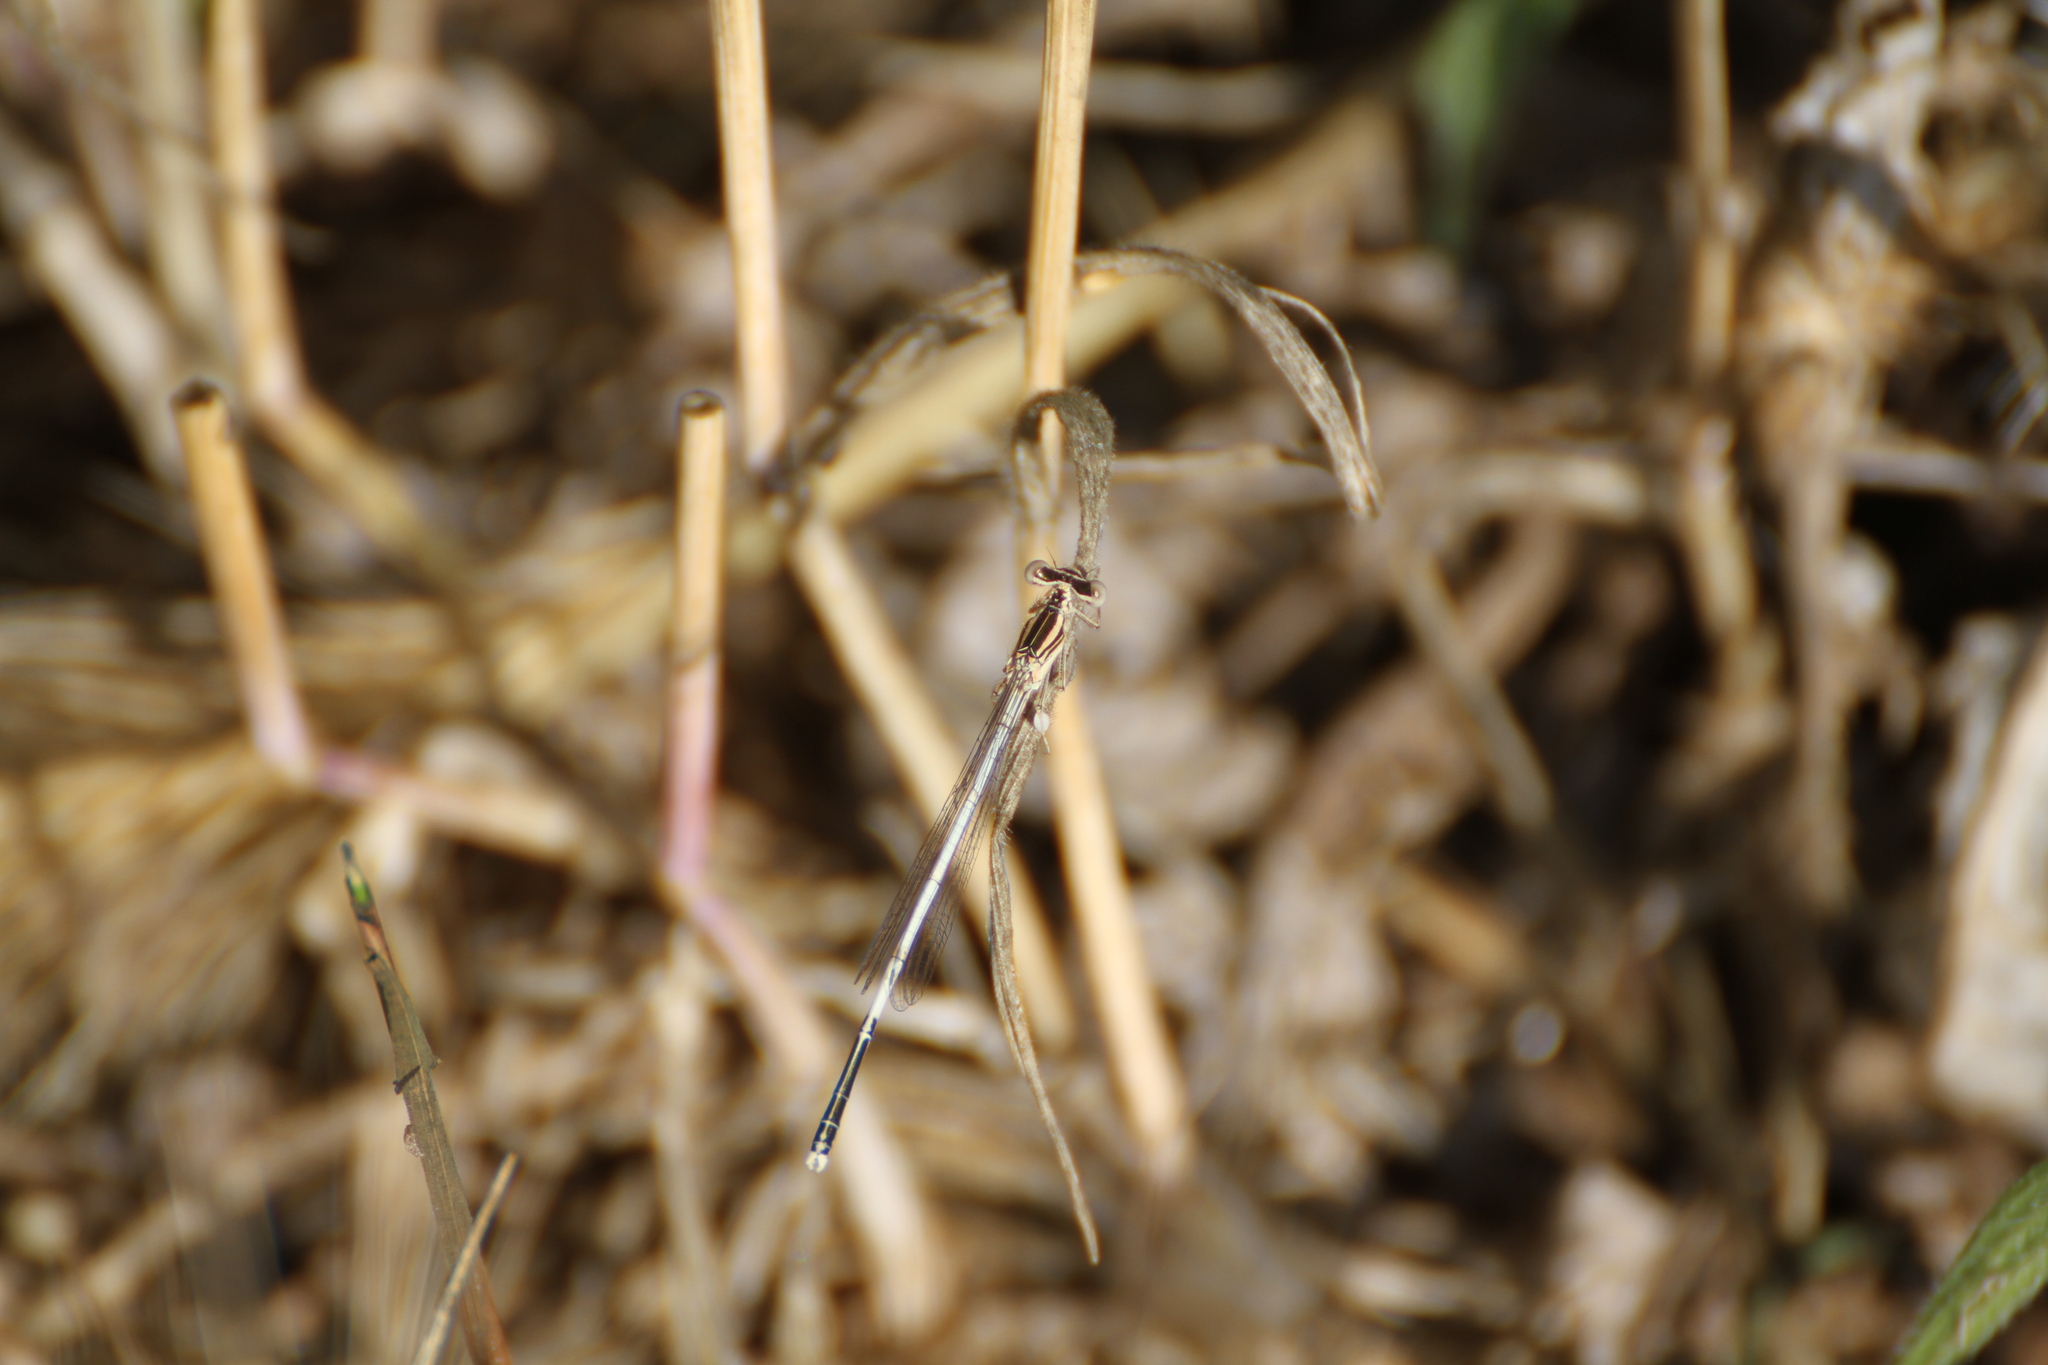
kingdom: Animalia
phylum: Arthropoda
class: Insecta
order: Odonata
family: Platycnemididae
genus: Platycnemis
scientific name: Platycnemis latipes
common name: White featherleg
